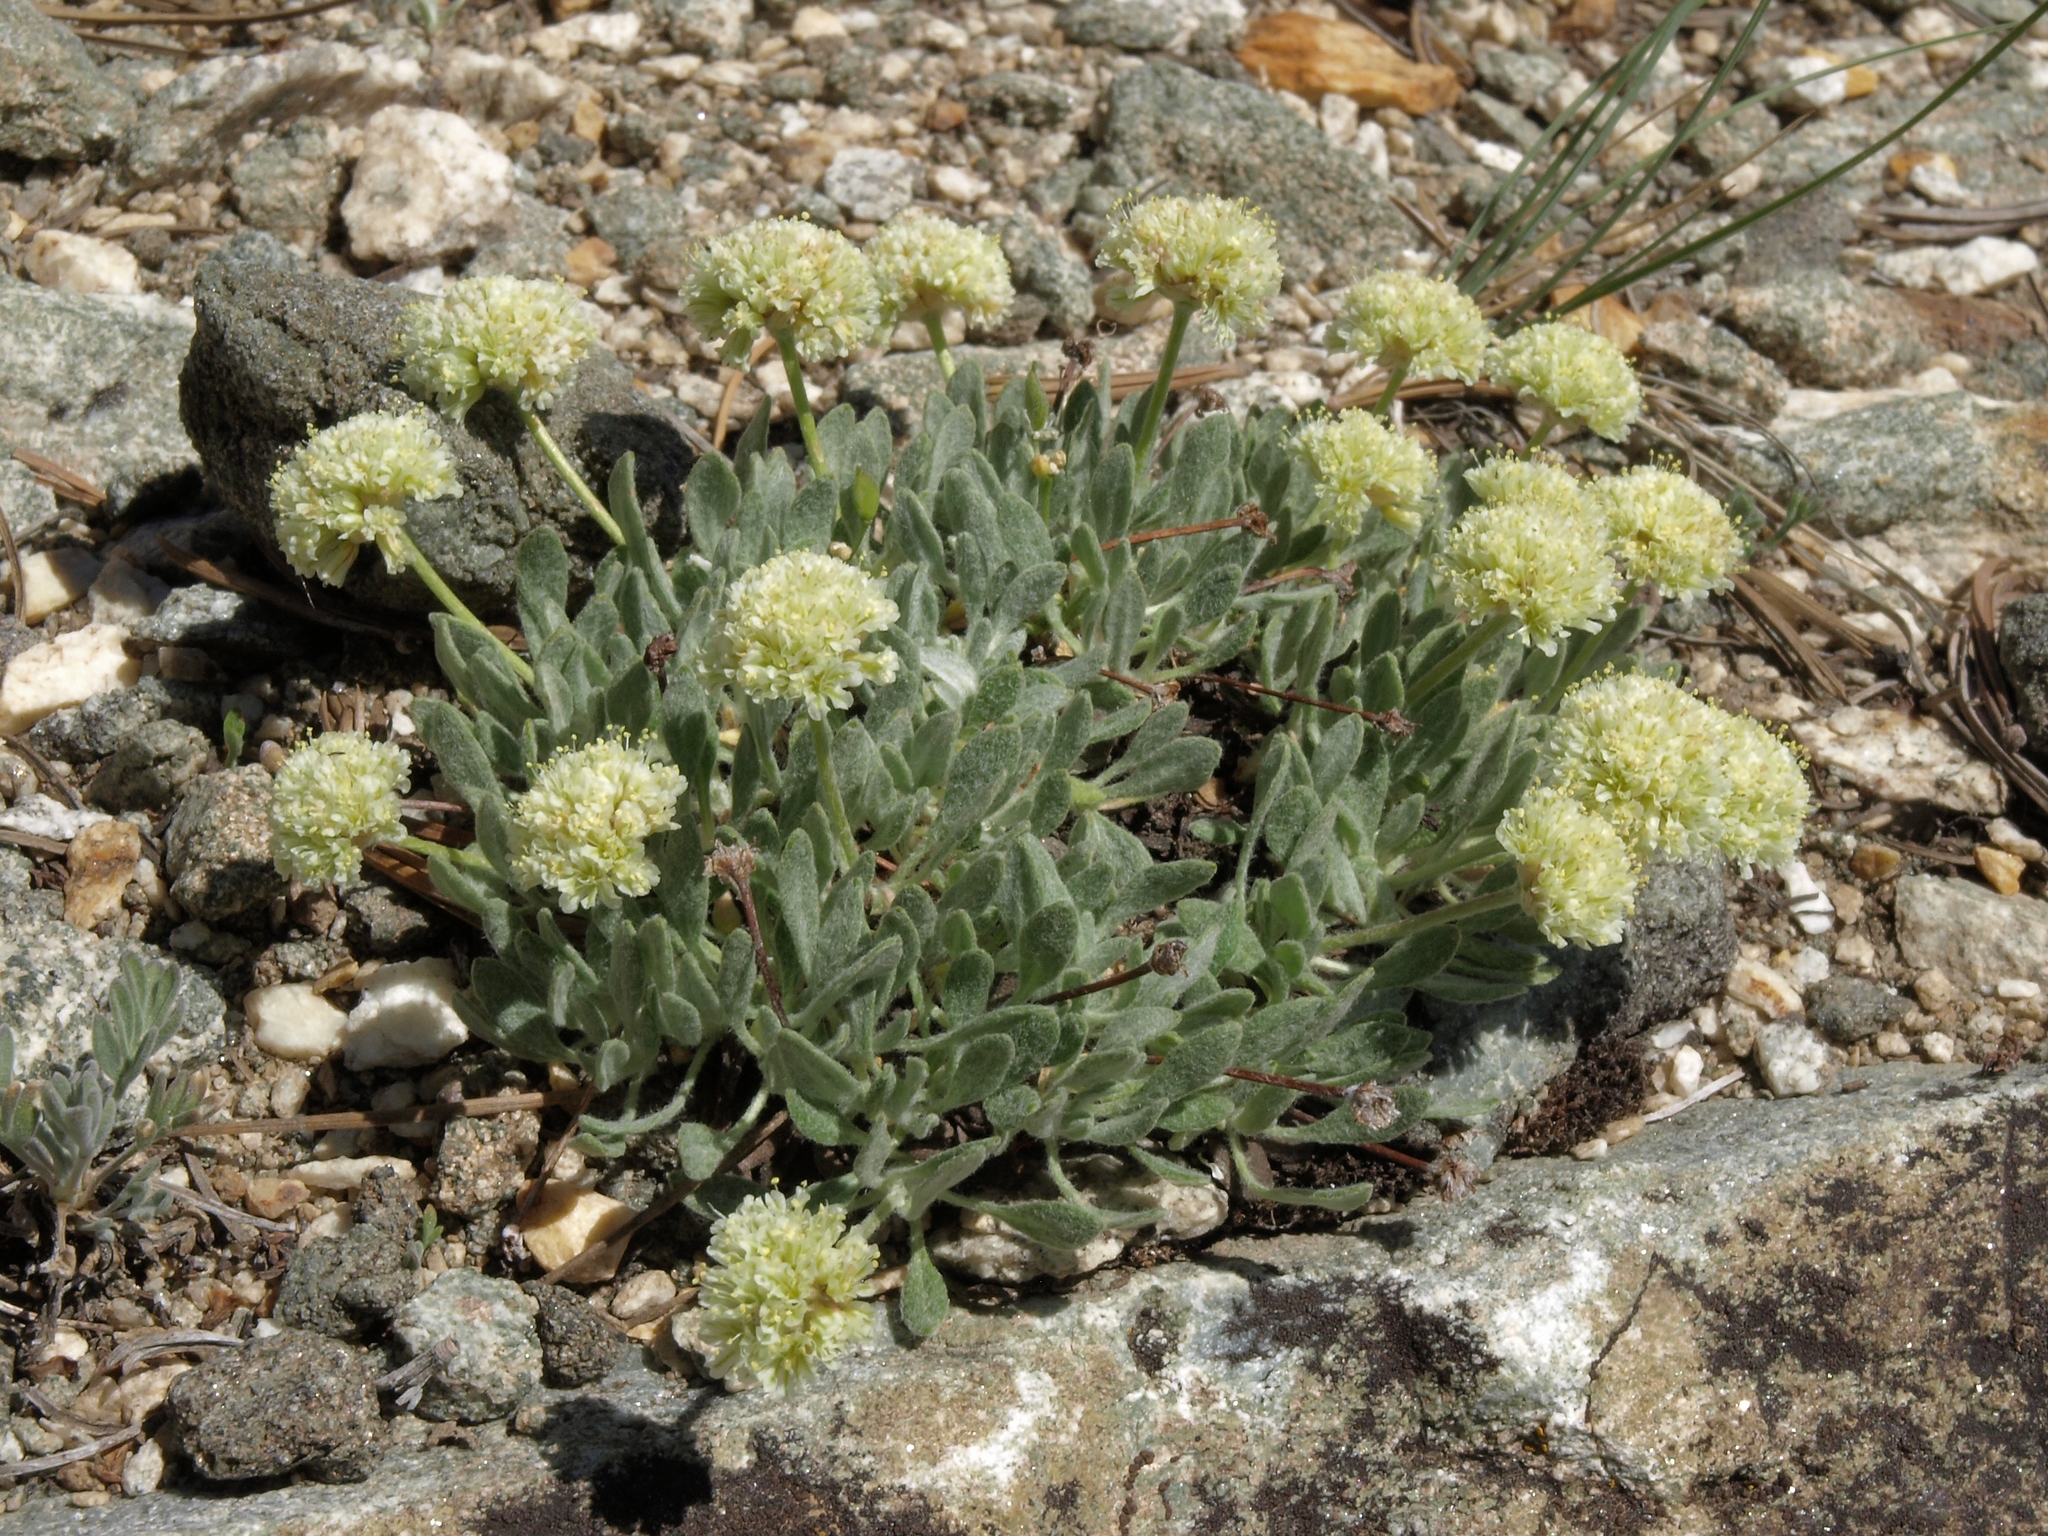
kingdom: Plantae
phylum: Tracheophyta
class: Magnoliopsida
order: Caryophyllales
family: Polygonaceae
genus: Eriogonum
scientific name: Eriogonum kingii
